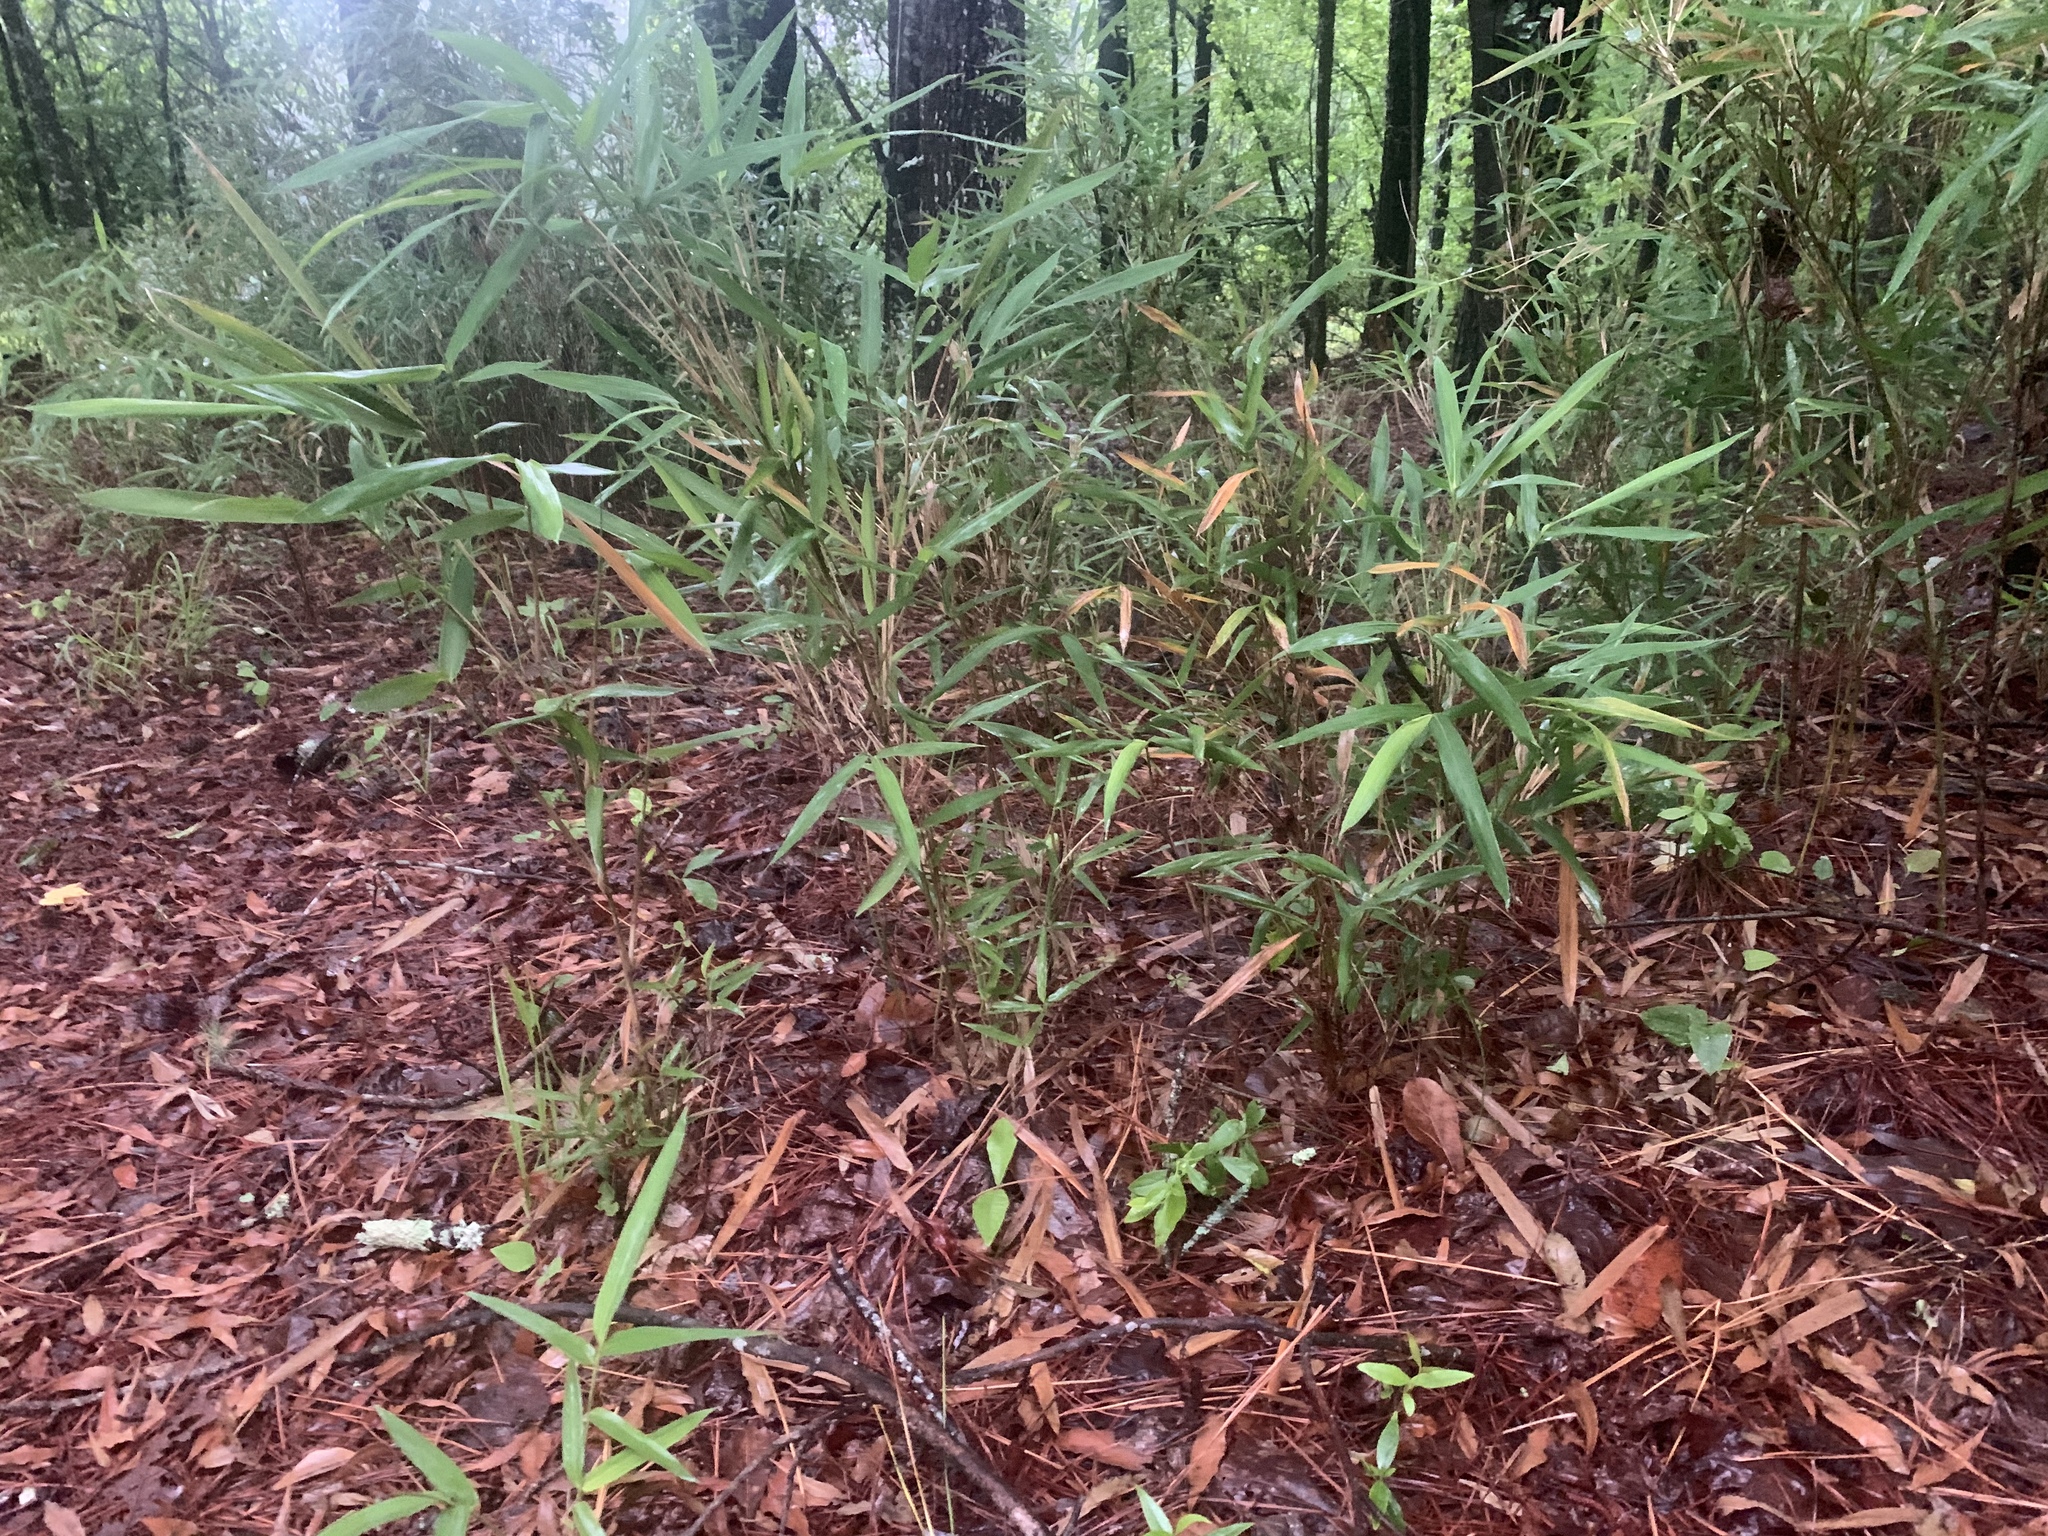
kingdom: Plantae
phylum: Tracheophyta
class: Liliopsida
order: Poales
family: Poaceae
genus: Arundinaria
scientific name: Arundinaria tecta
